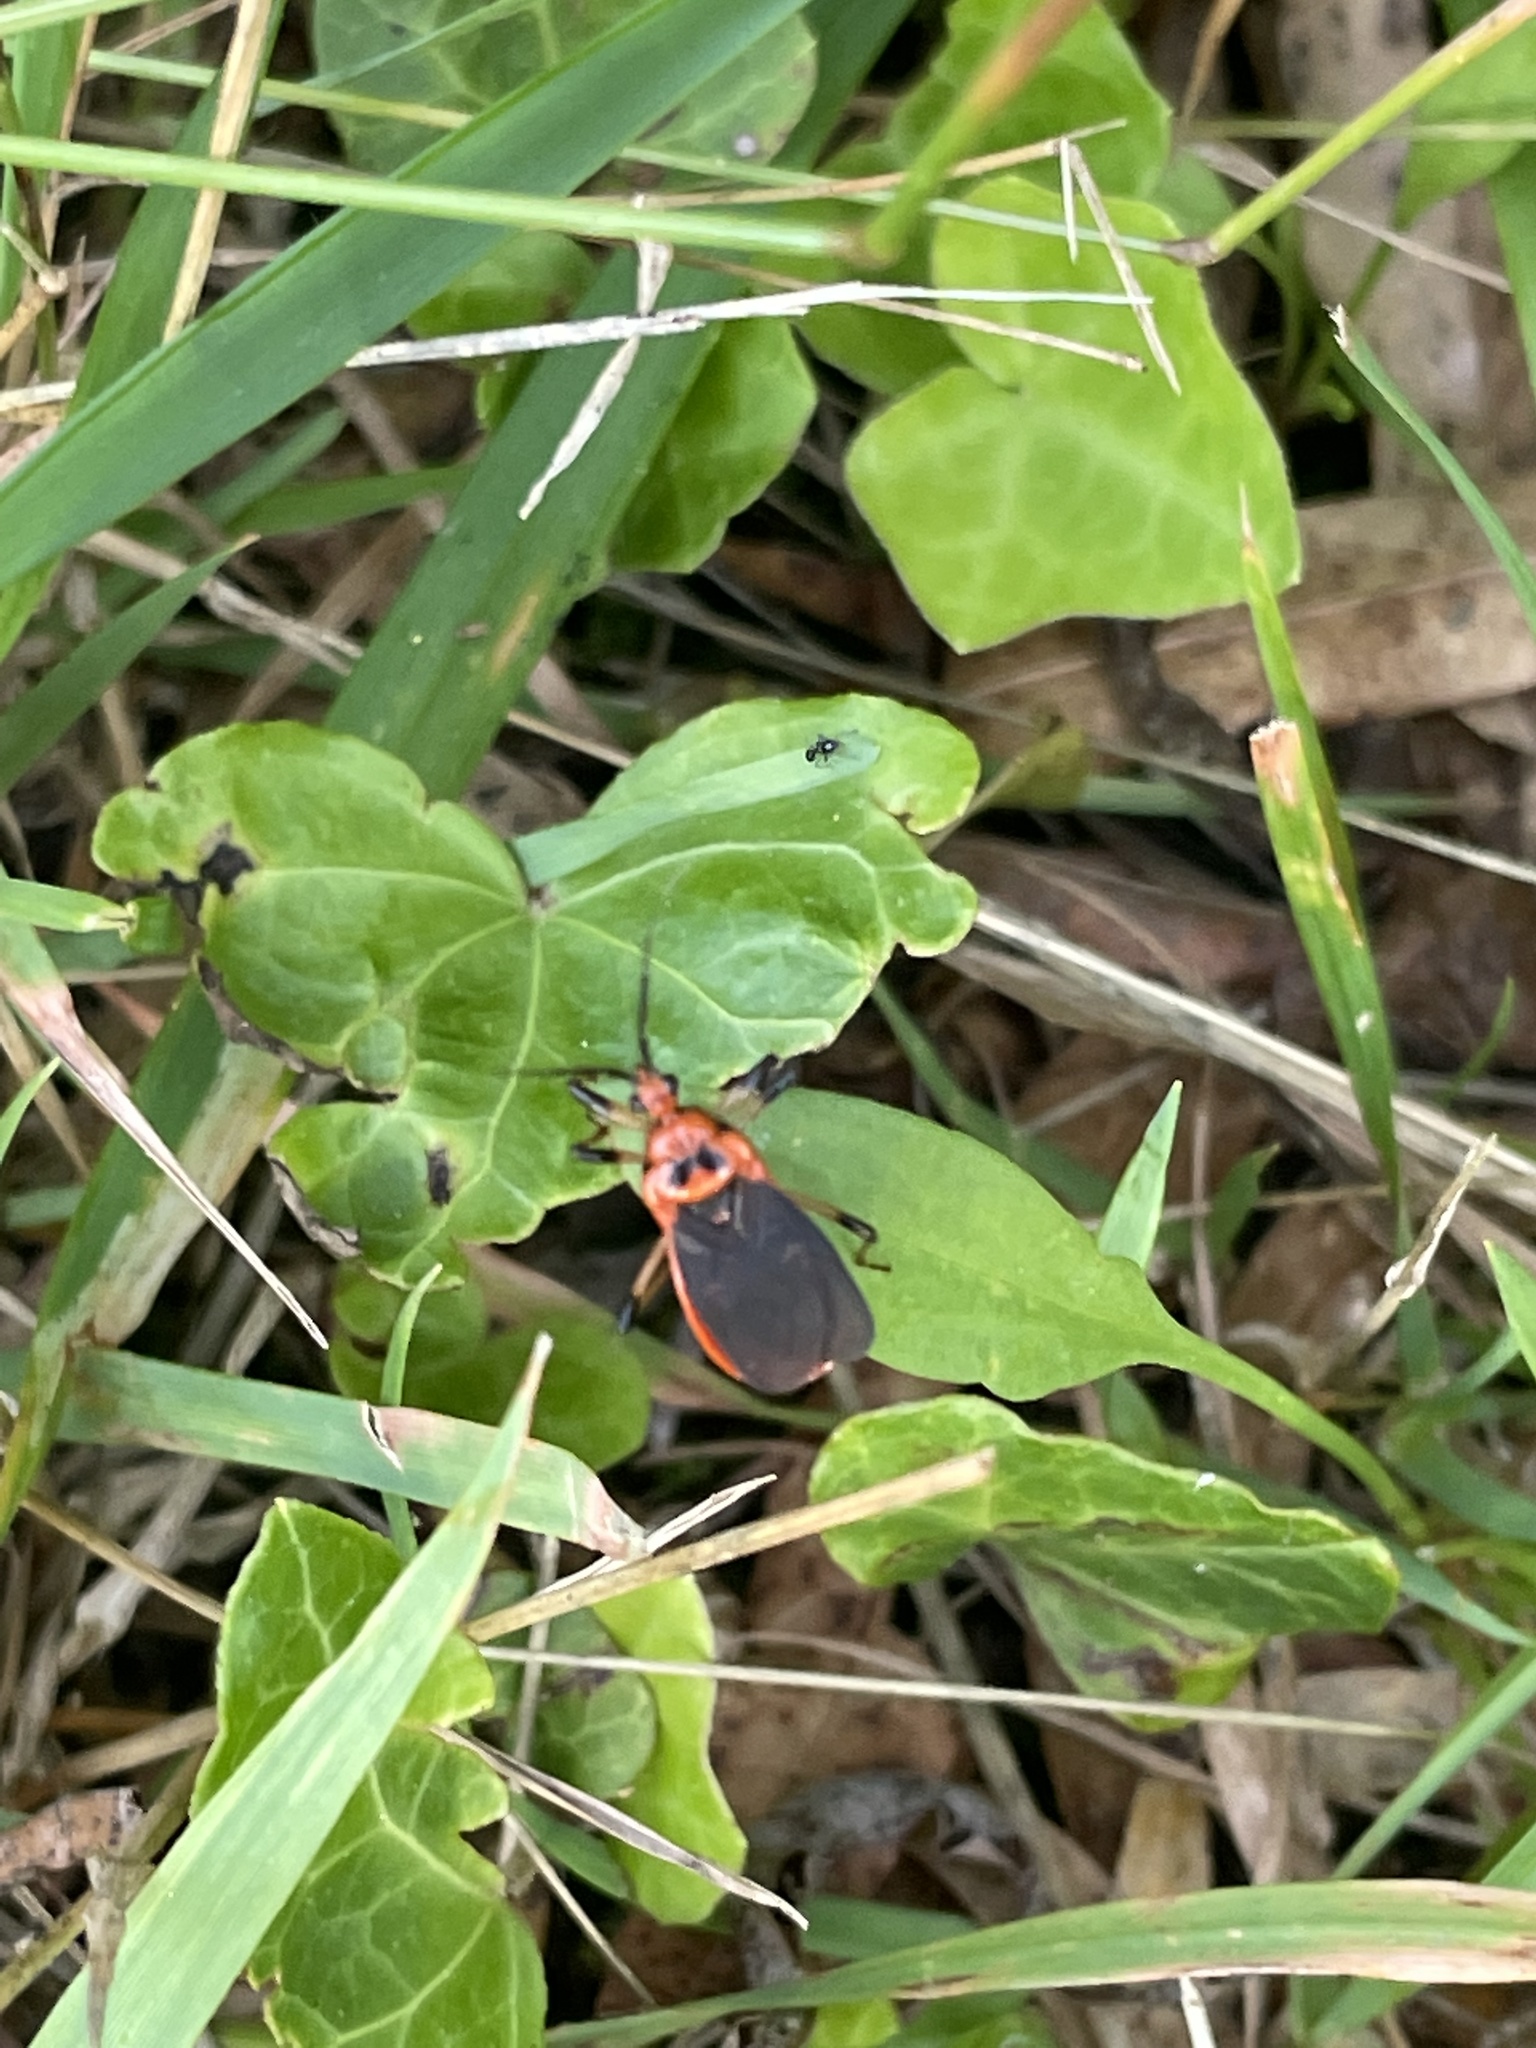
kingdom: Animalia
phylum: Arthropoda
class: Insecta
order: Hemiptera
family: Reduviidae
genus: Rhiginia
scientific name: Rhiginia cruciata
